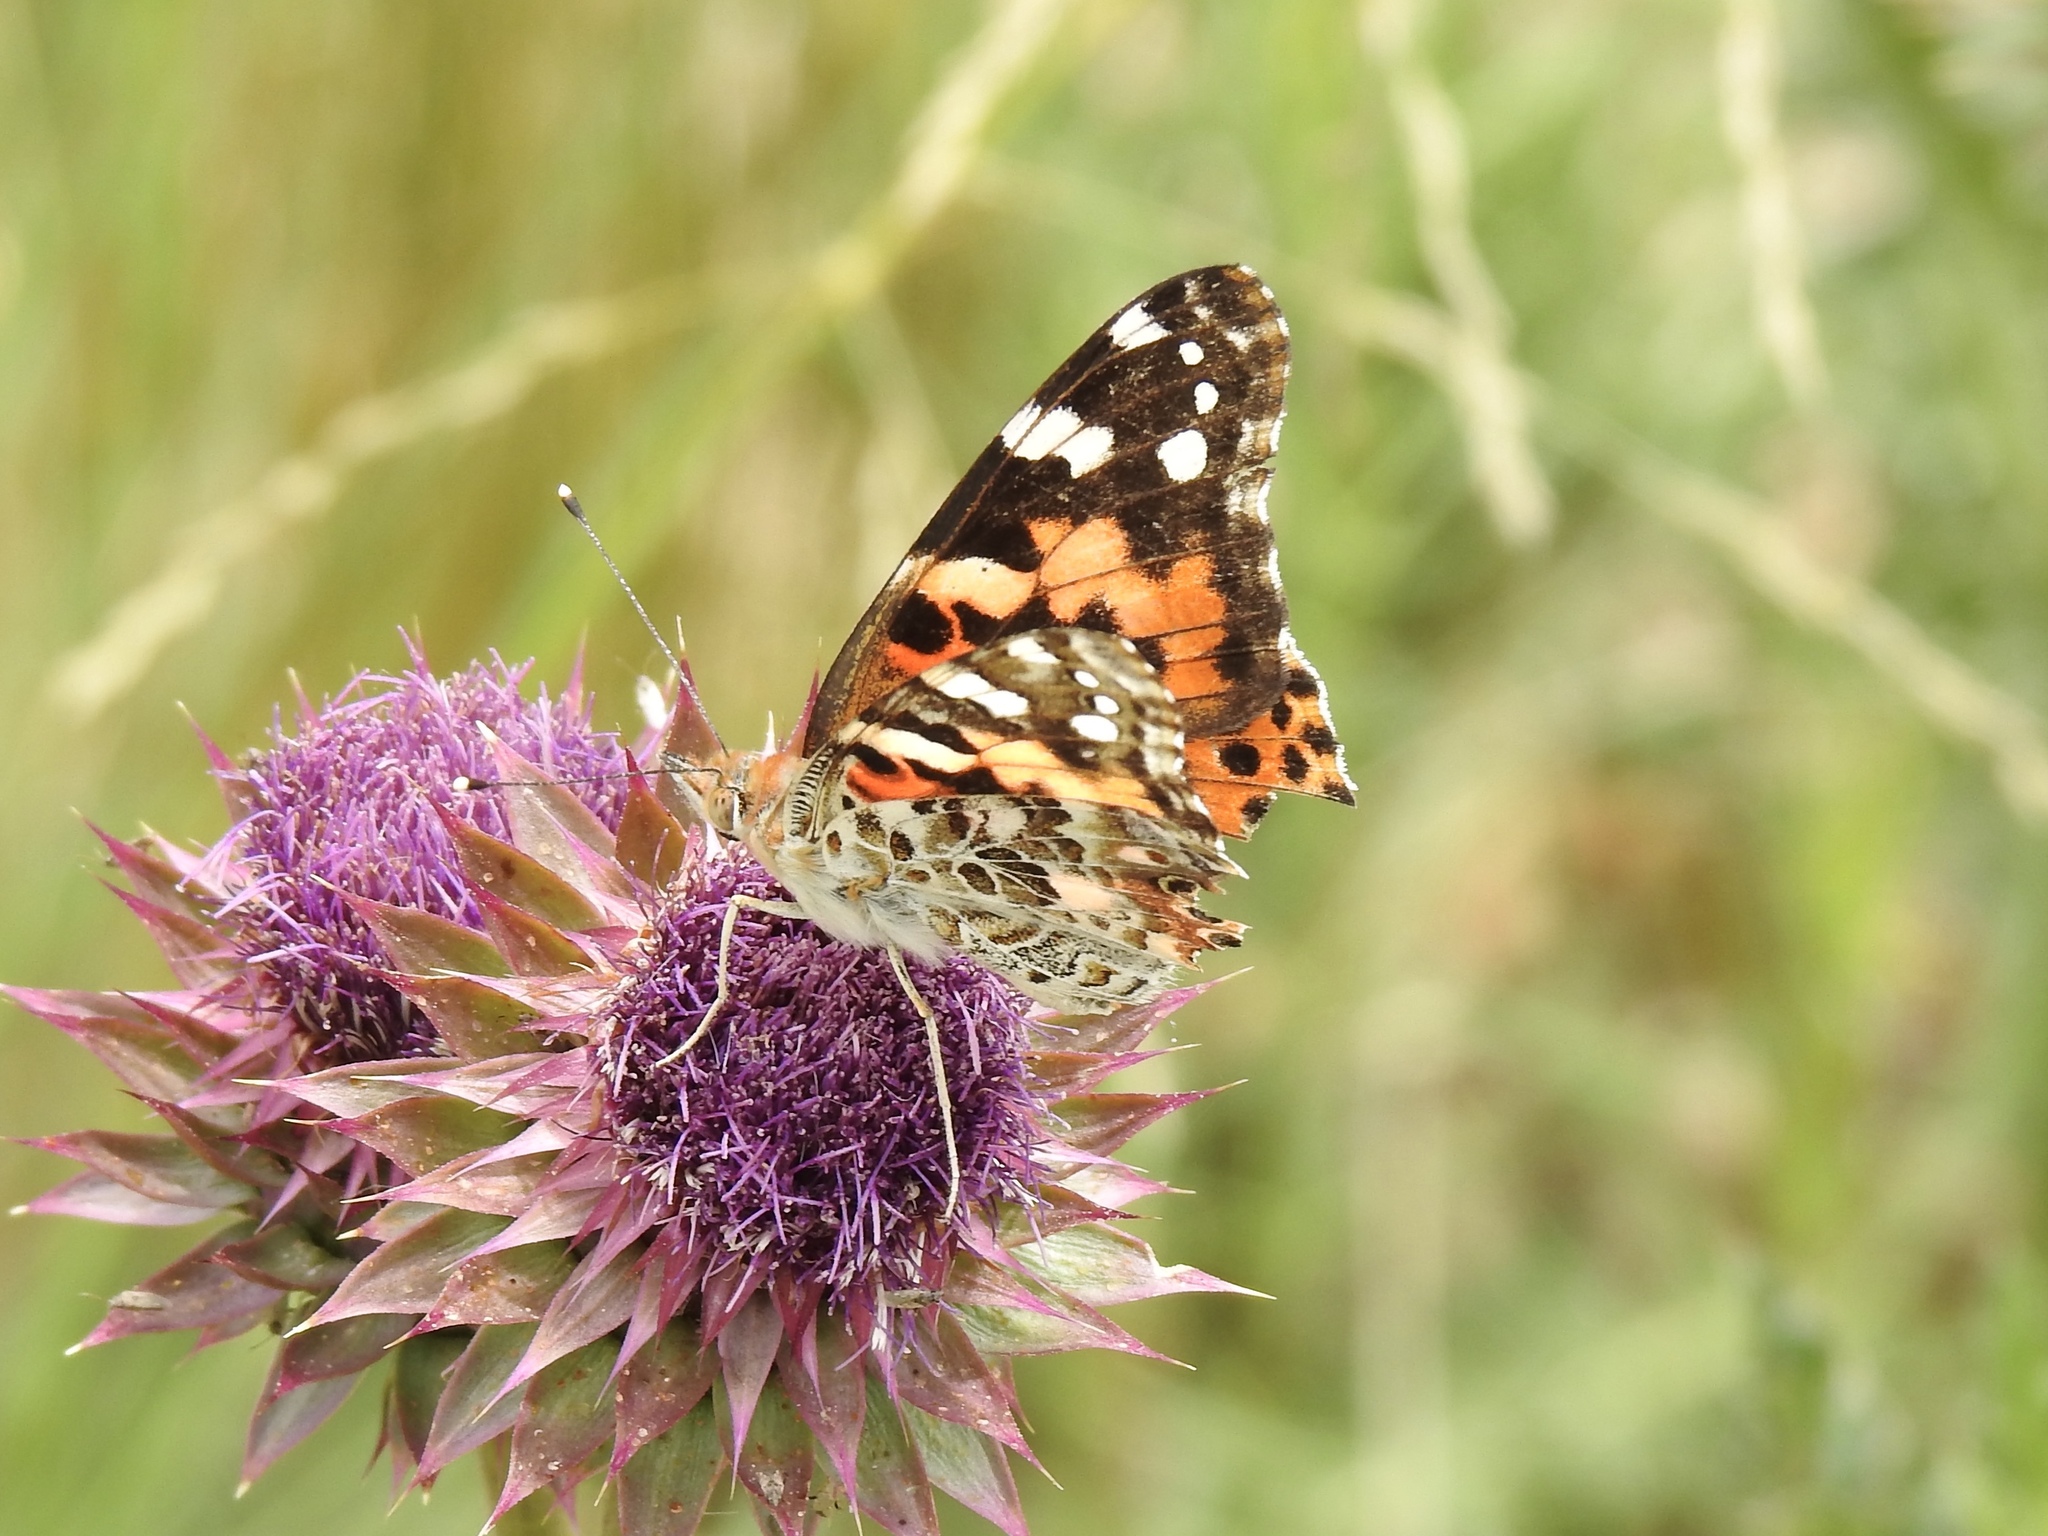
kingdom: Animalia
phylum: Arthropoda
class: Insecta
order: Lepidoptera
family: Nymphalidae
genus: Vanessa
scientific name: Vanessa cardui
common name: Painted lady
